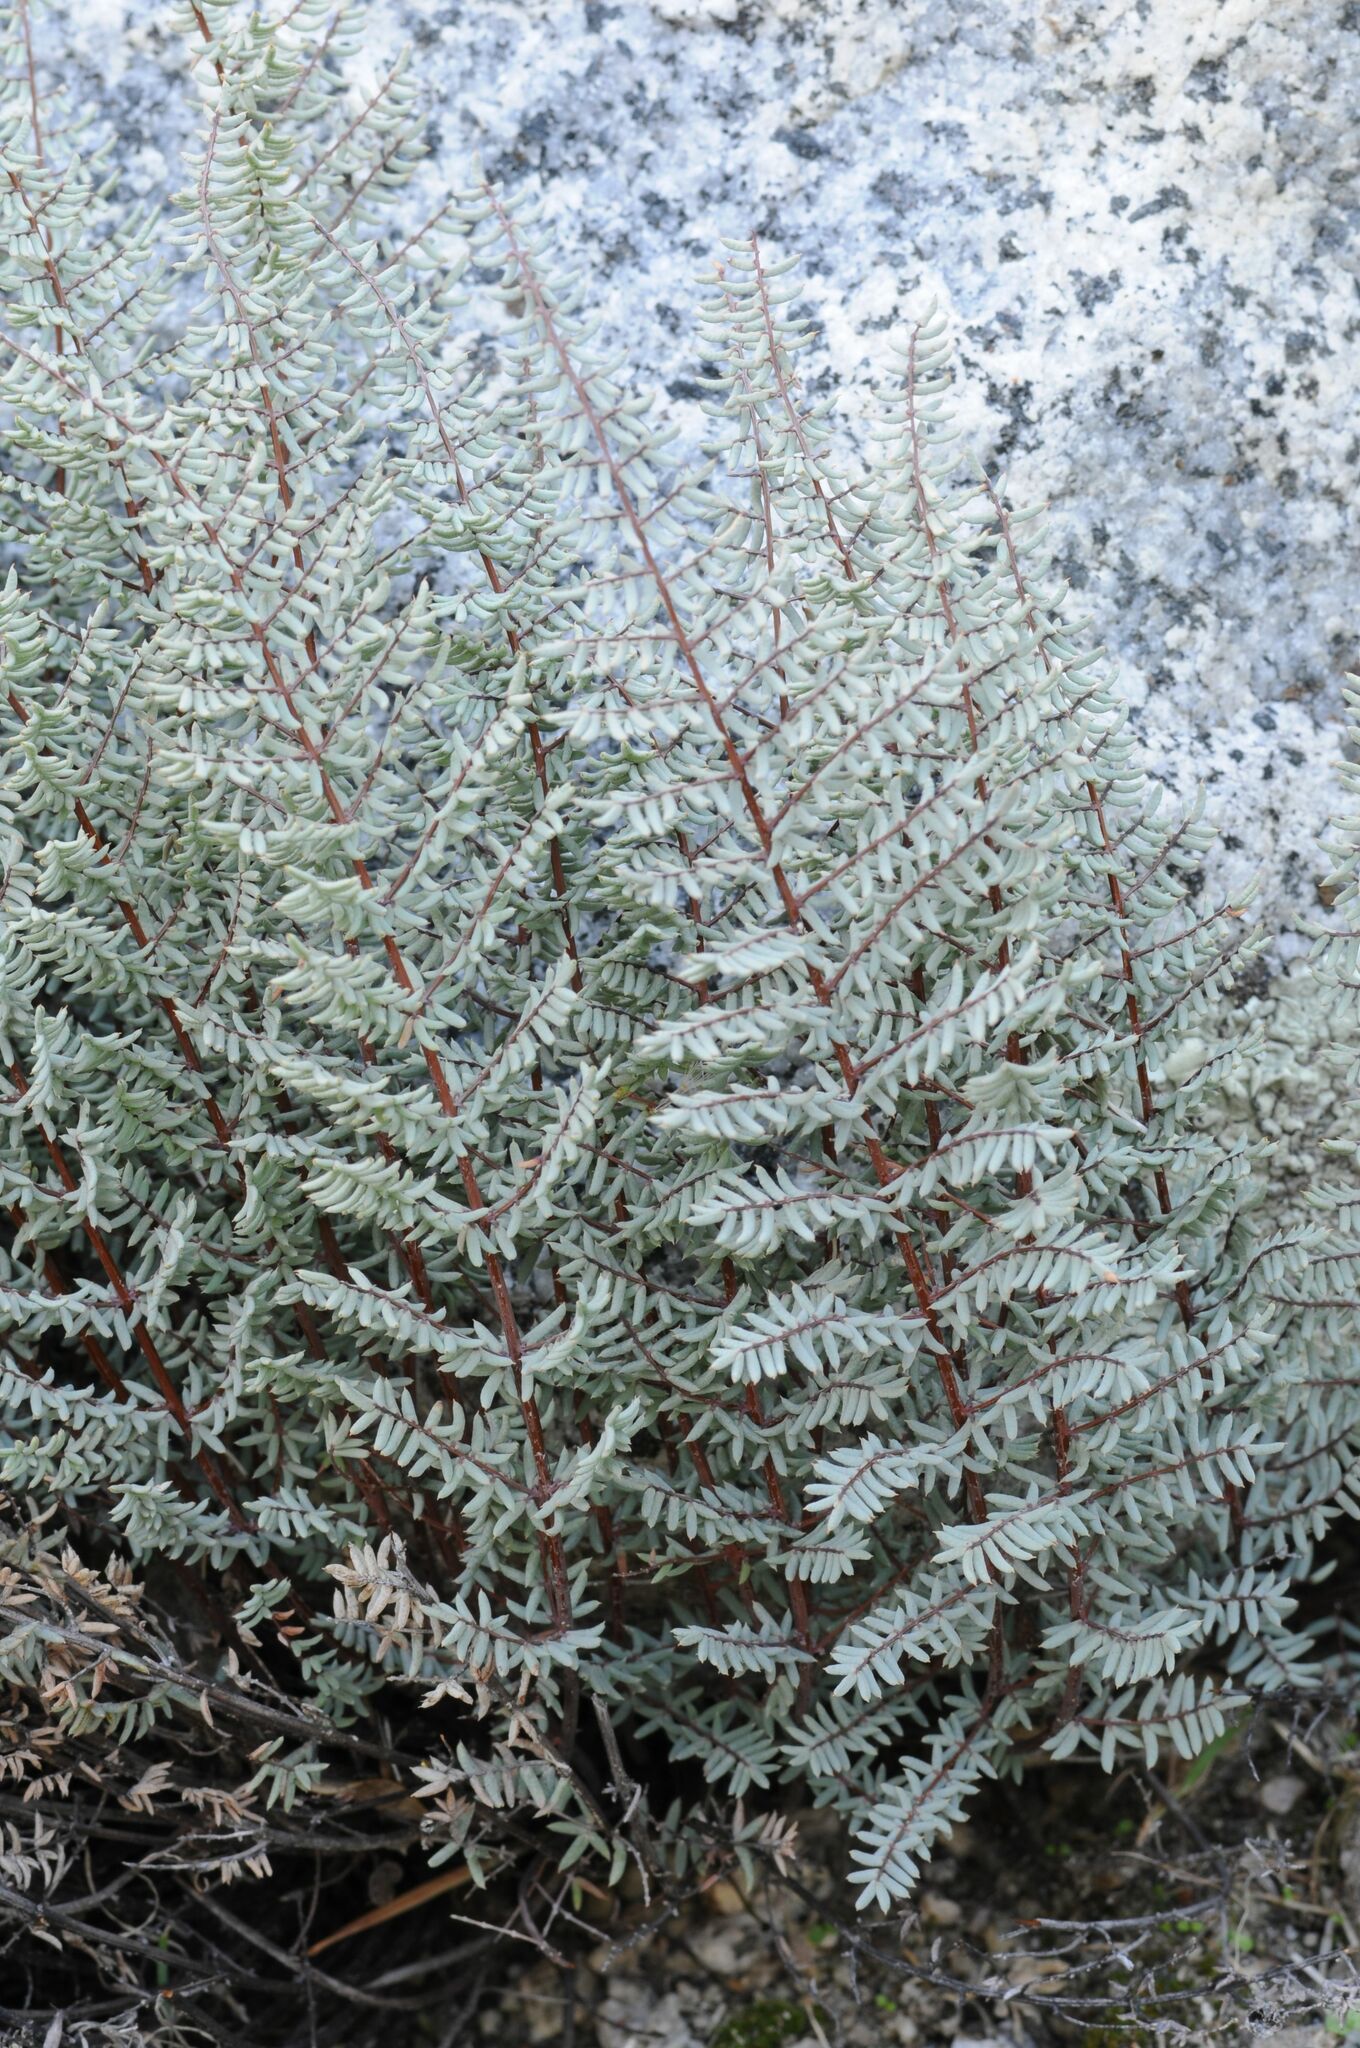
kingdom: Plantae
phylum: Tracheophyta
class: Polypodiopsida
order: Polypodiales
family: Pteridaceae
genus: Pellaea
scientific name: Pellaea mucronata
